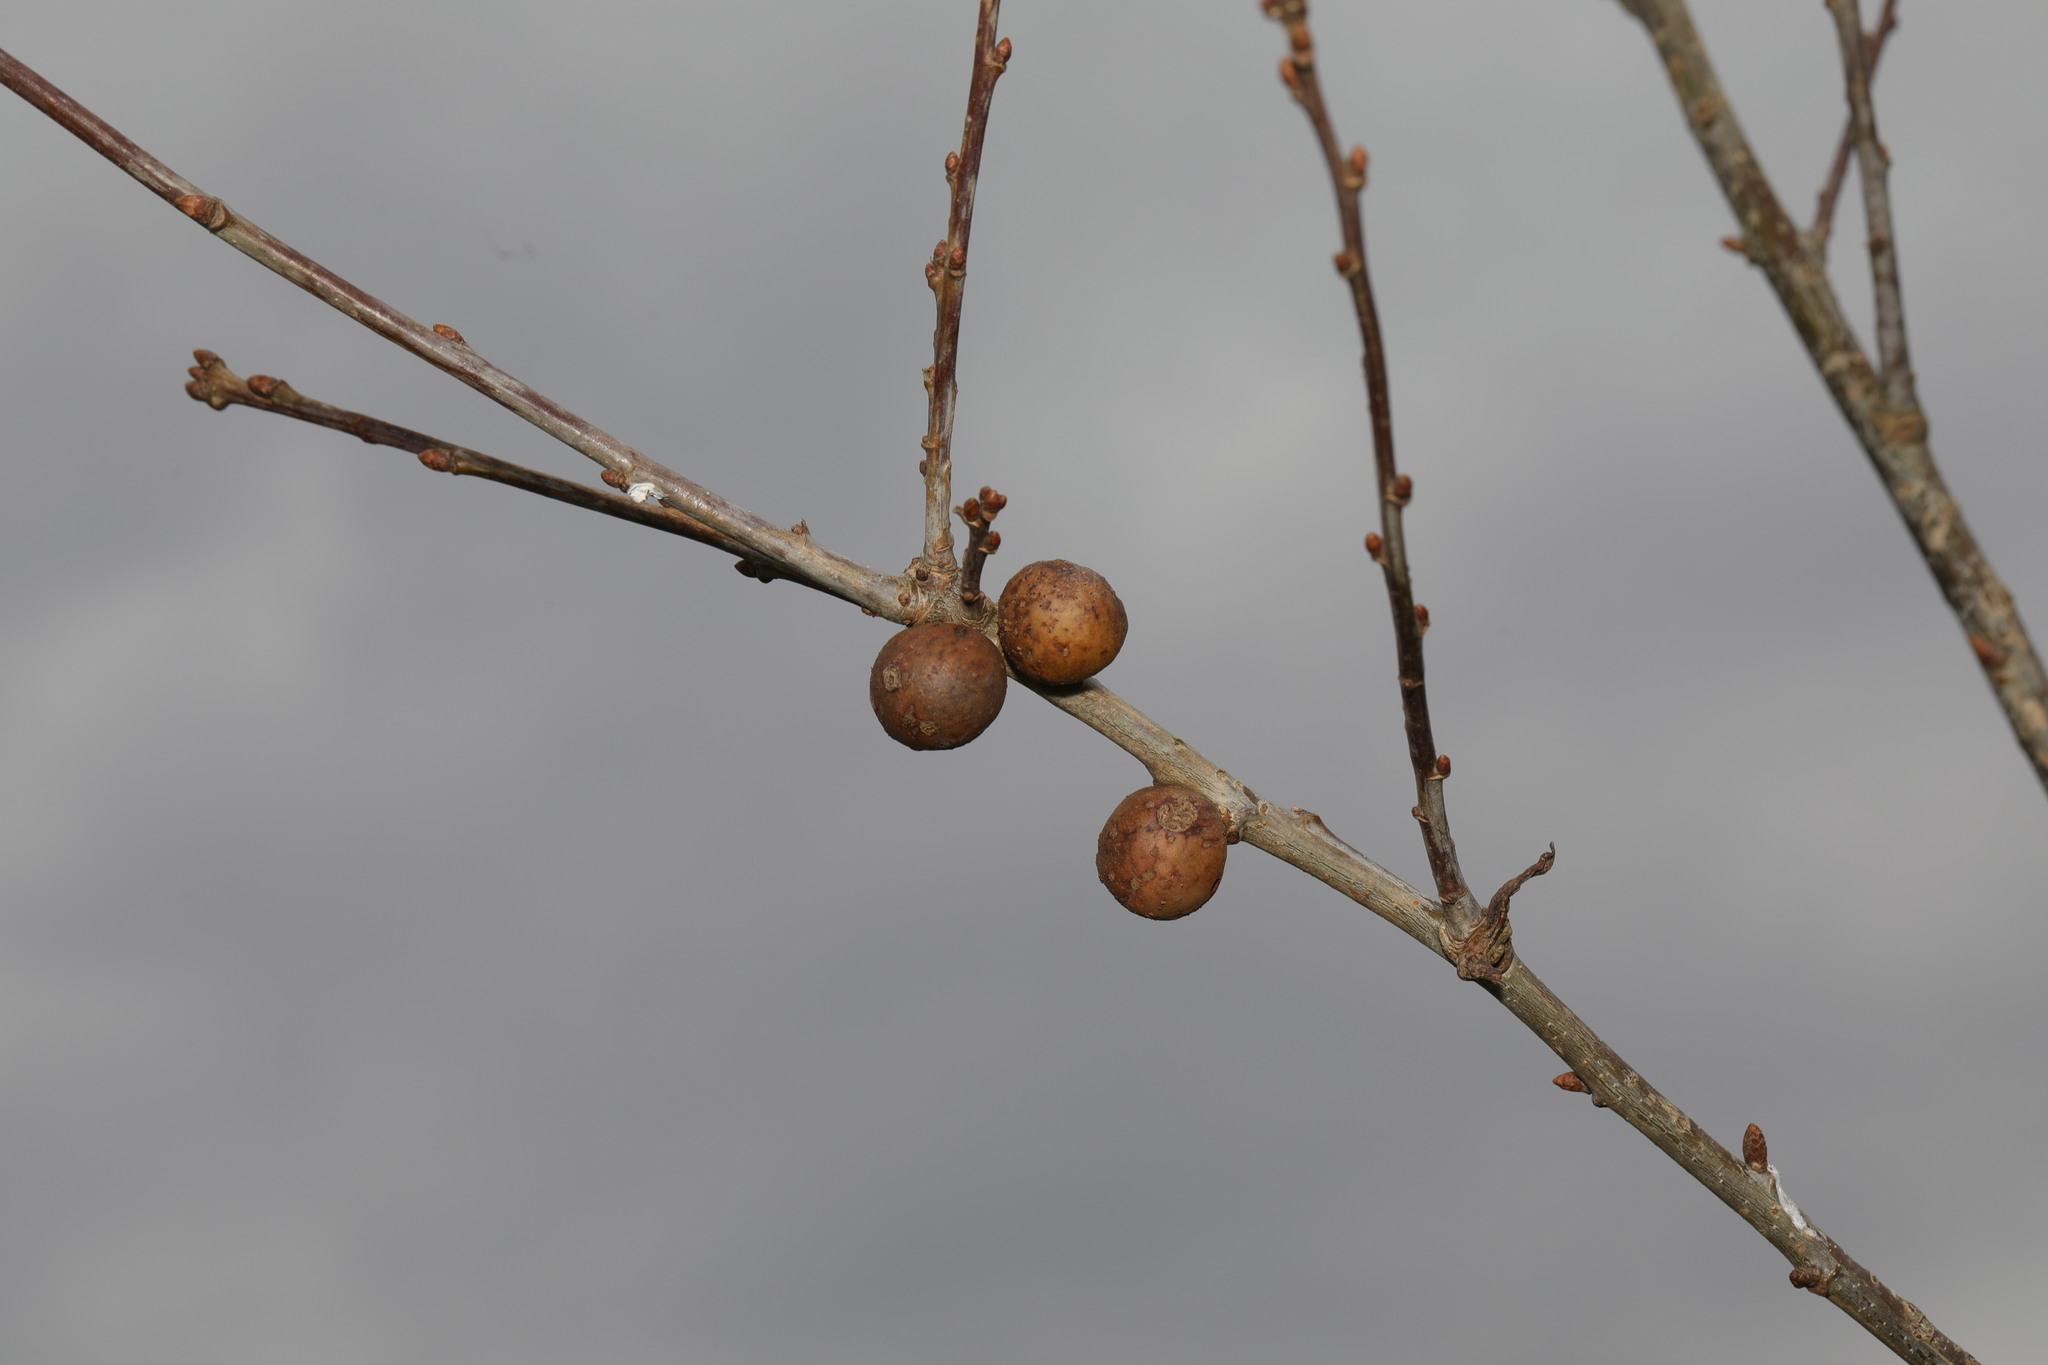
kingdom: Animalia
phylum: Arthropoda
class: Insecta
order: Hymenoptera
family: Cynipidae
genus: Andricus
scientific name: Andricus kollari
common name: Marble gall
